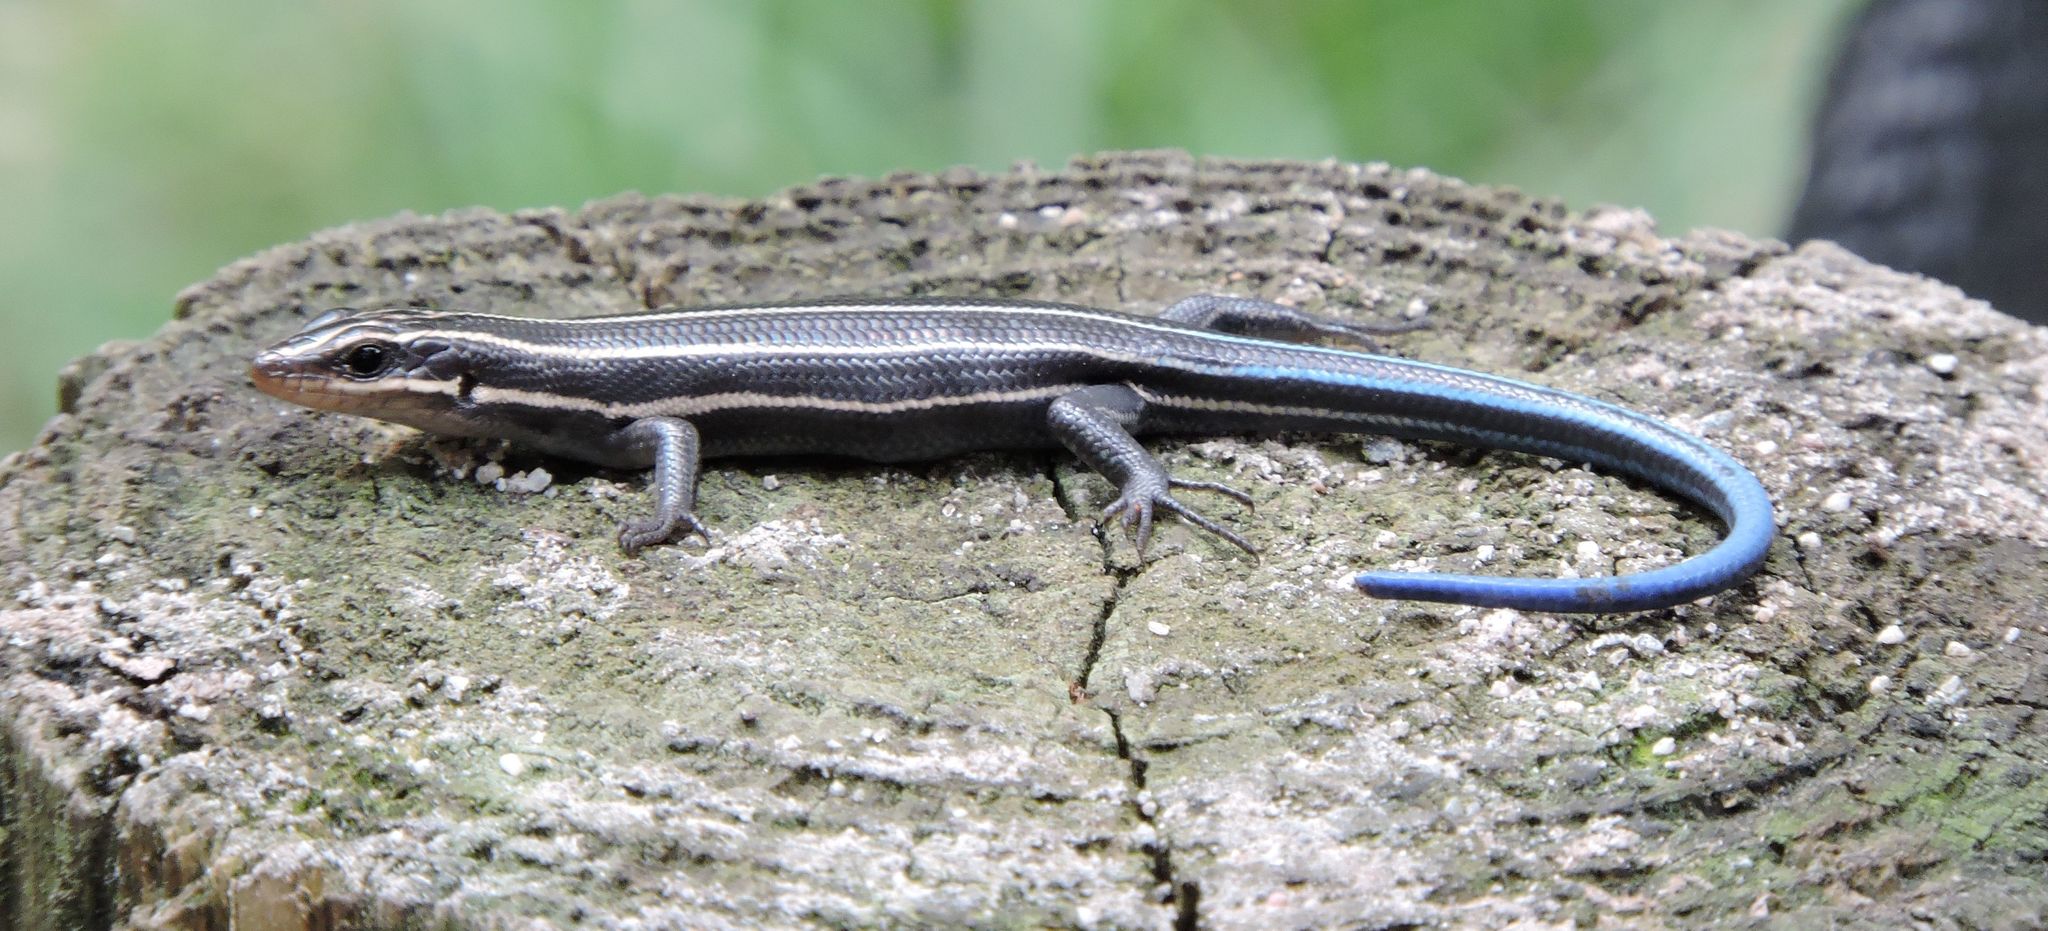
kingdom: Animalia
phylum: Chordata
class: Squamata
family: Scincidae
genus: Plestiodon
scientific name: Plestiodon fasciatus
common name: Five-lined skink
